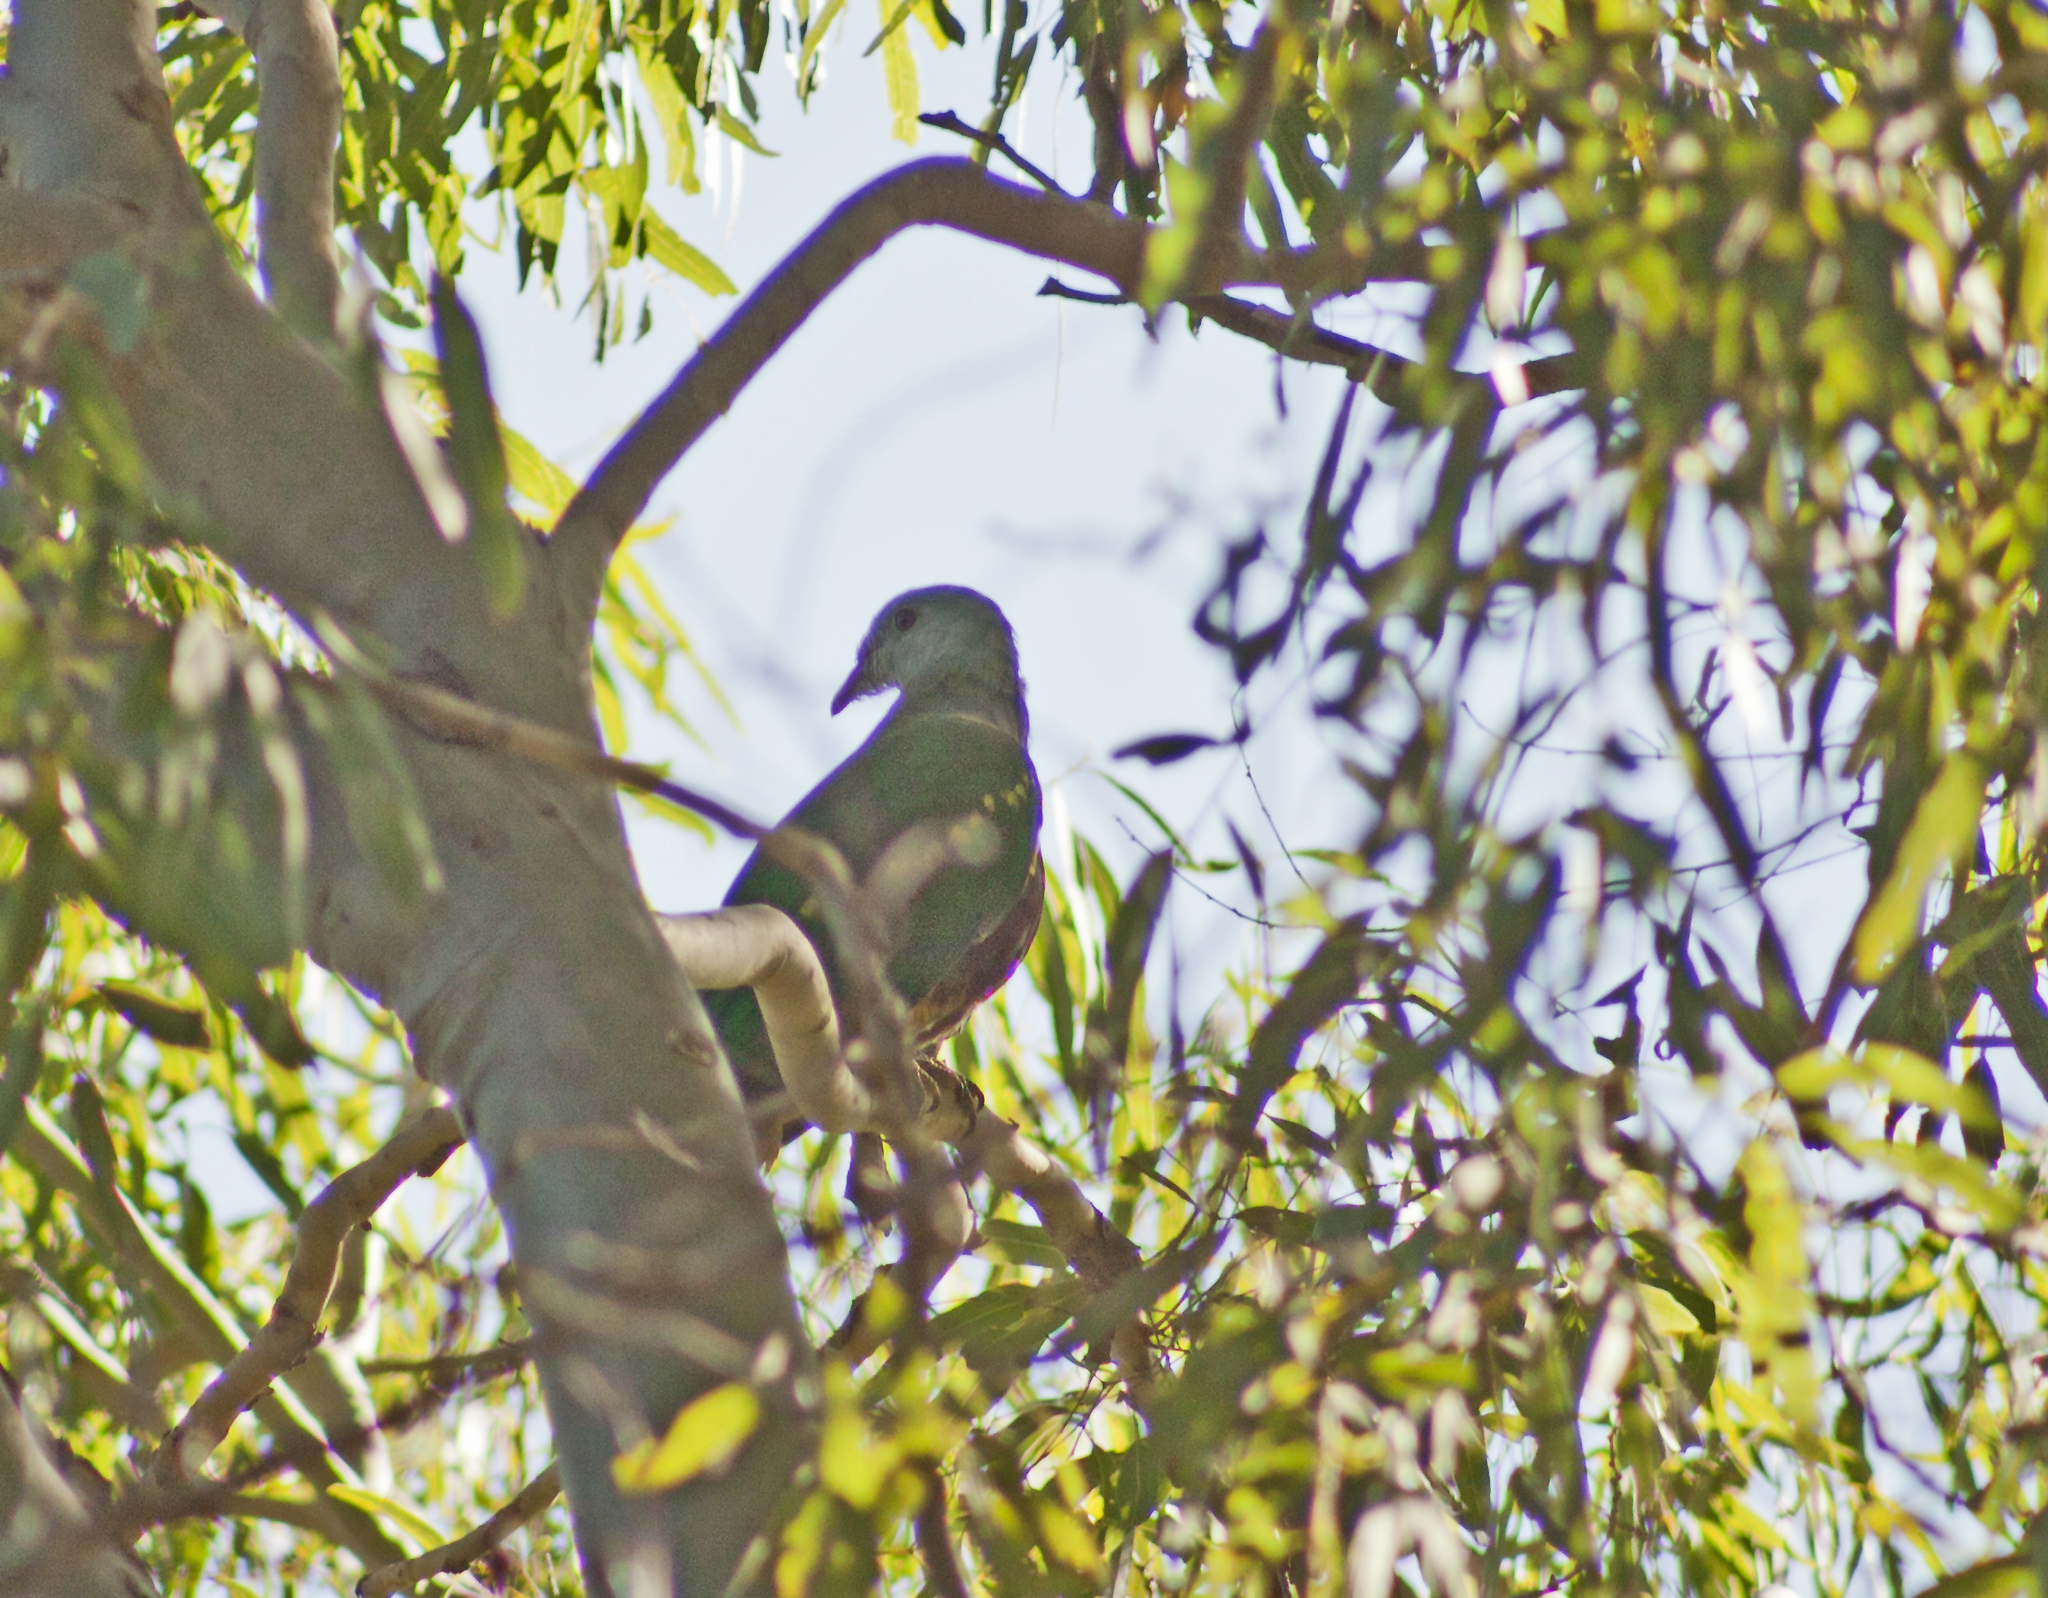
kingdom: Animalia
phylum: Chordata
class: Aves
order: Columbiformes
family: Columbidae
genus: Ptilinopus
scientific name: Ptilinopus magnificus
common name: Wompoo fruit dove
